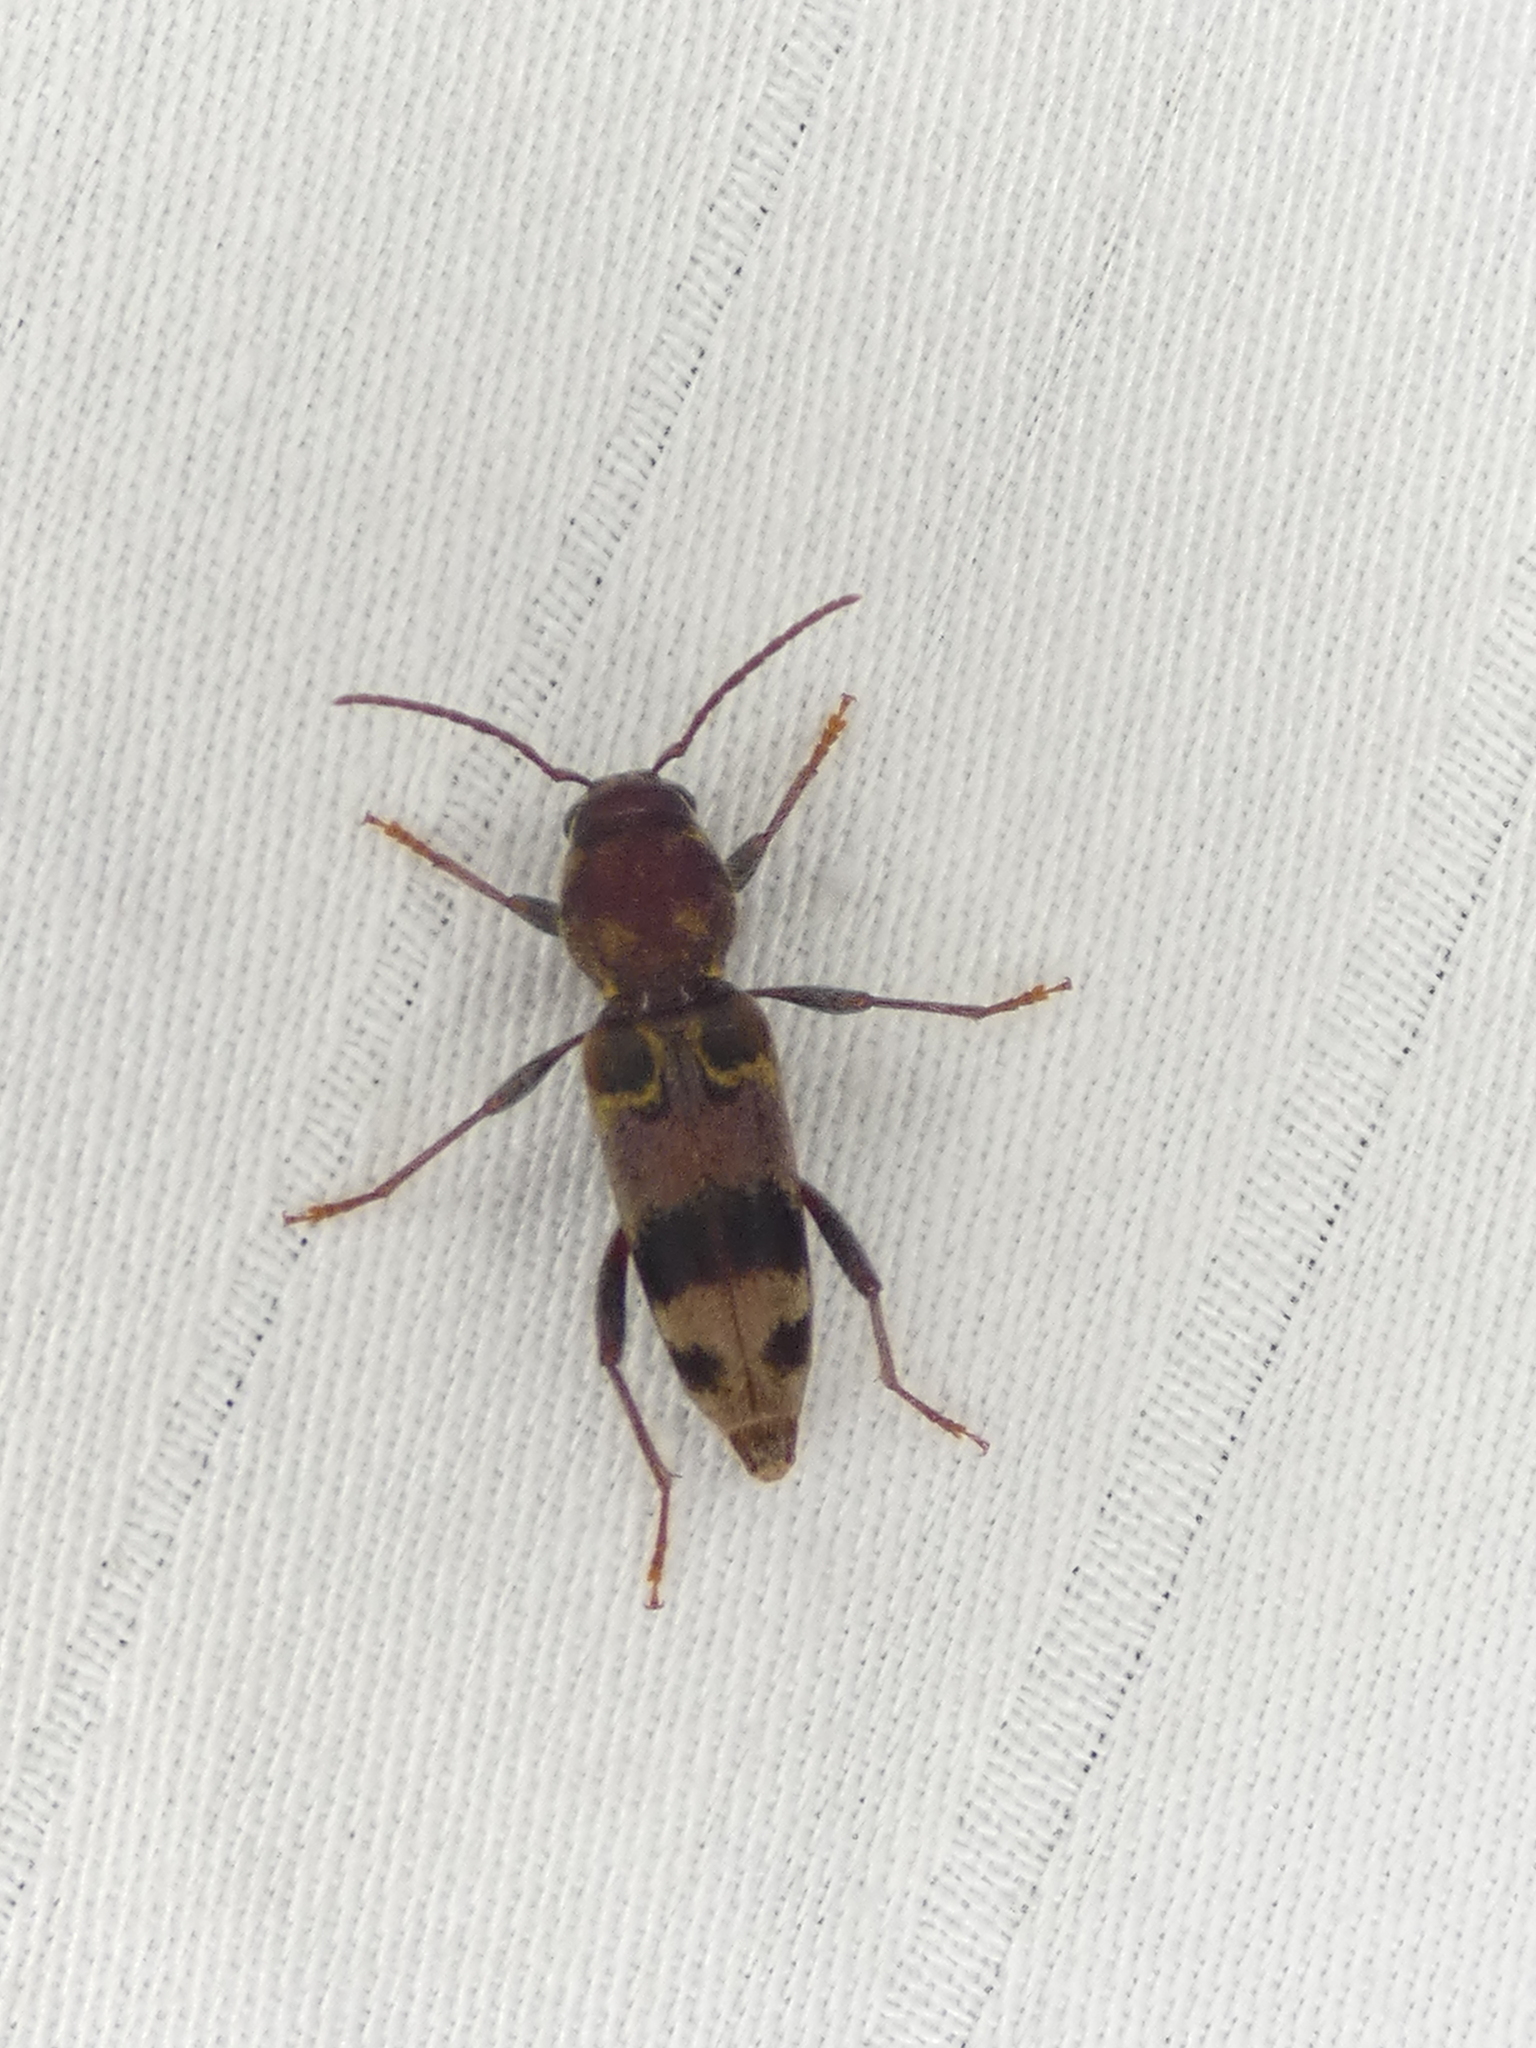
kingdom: Animalia
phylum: Arthropoda
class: Insecta
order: Coleoptera
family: Cerambycidae
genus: Xylotrechus
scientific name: Xylotrechus colonus
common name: Long-horned beetle
